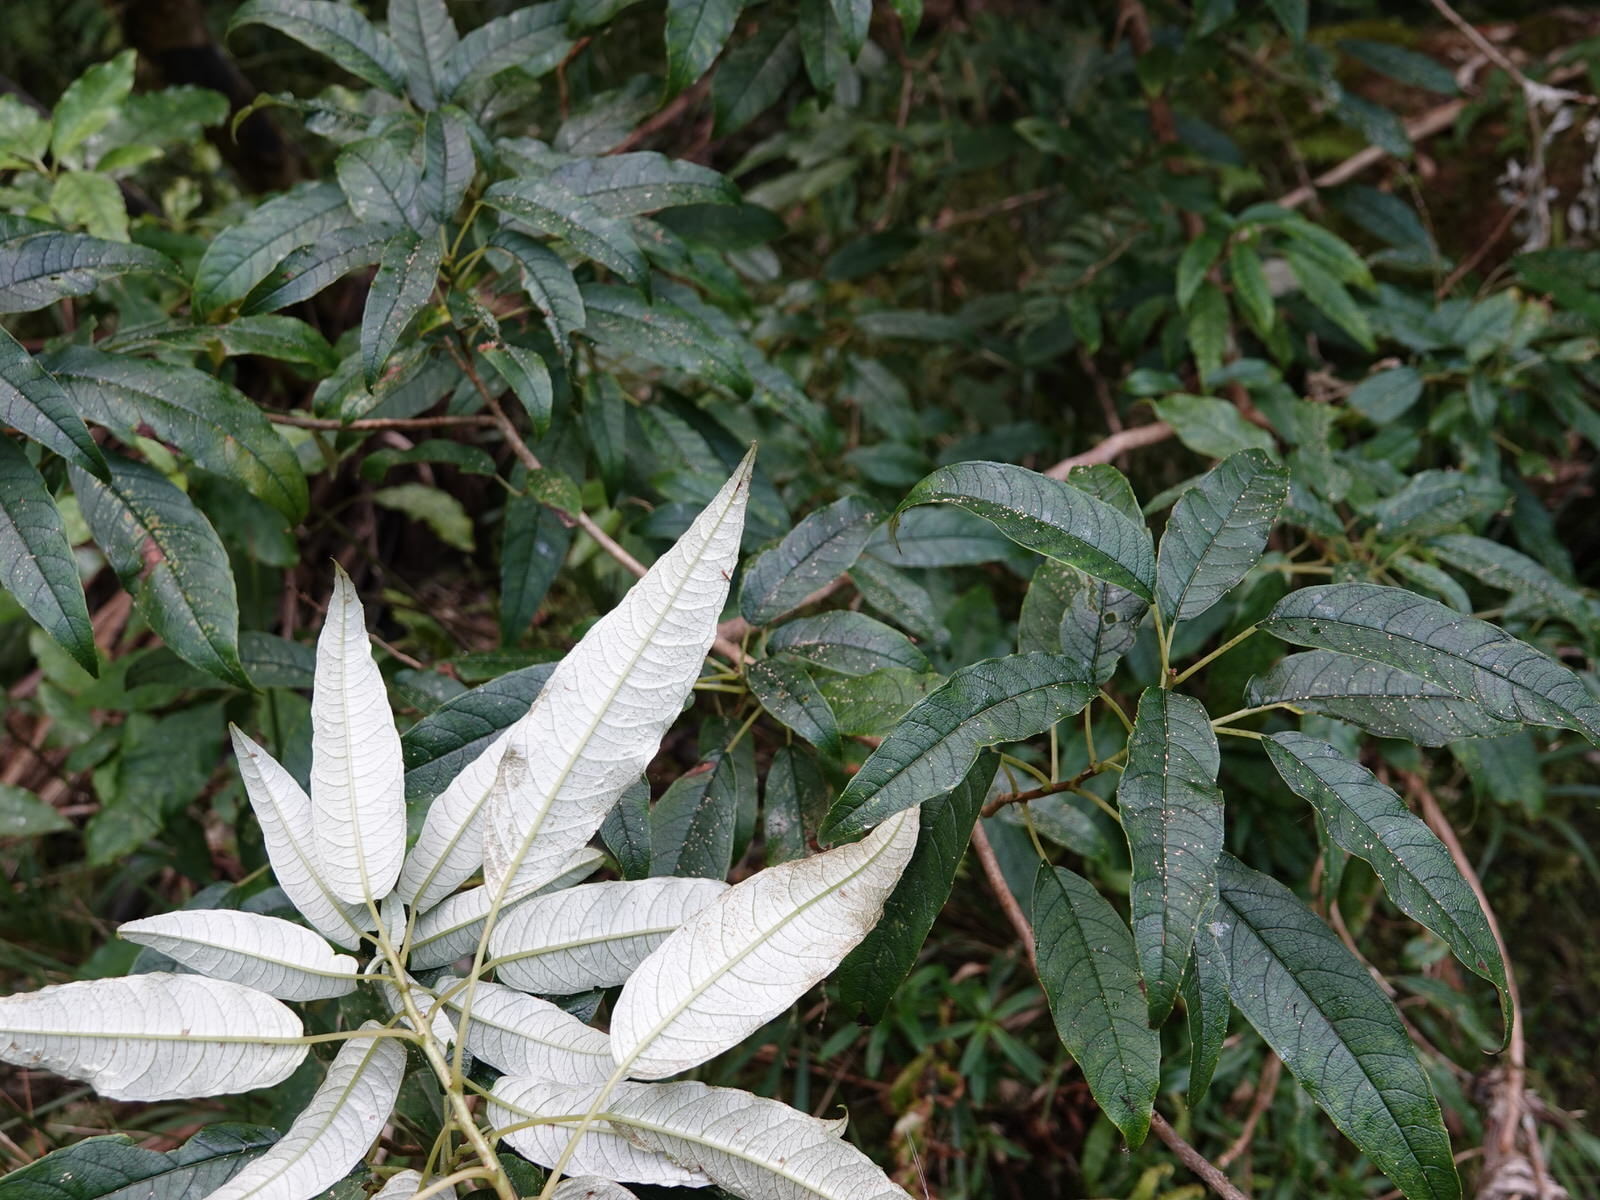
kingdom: Plantae
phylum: Tracheophyta
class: Magnoliopsida
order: Myrtales
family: Onagraceae
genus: Fuchsia
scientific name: Fuchsia excorticata
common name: Tree fuchsia
